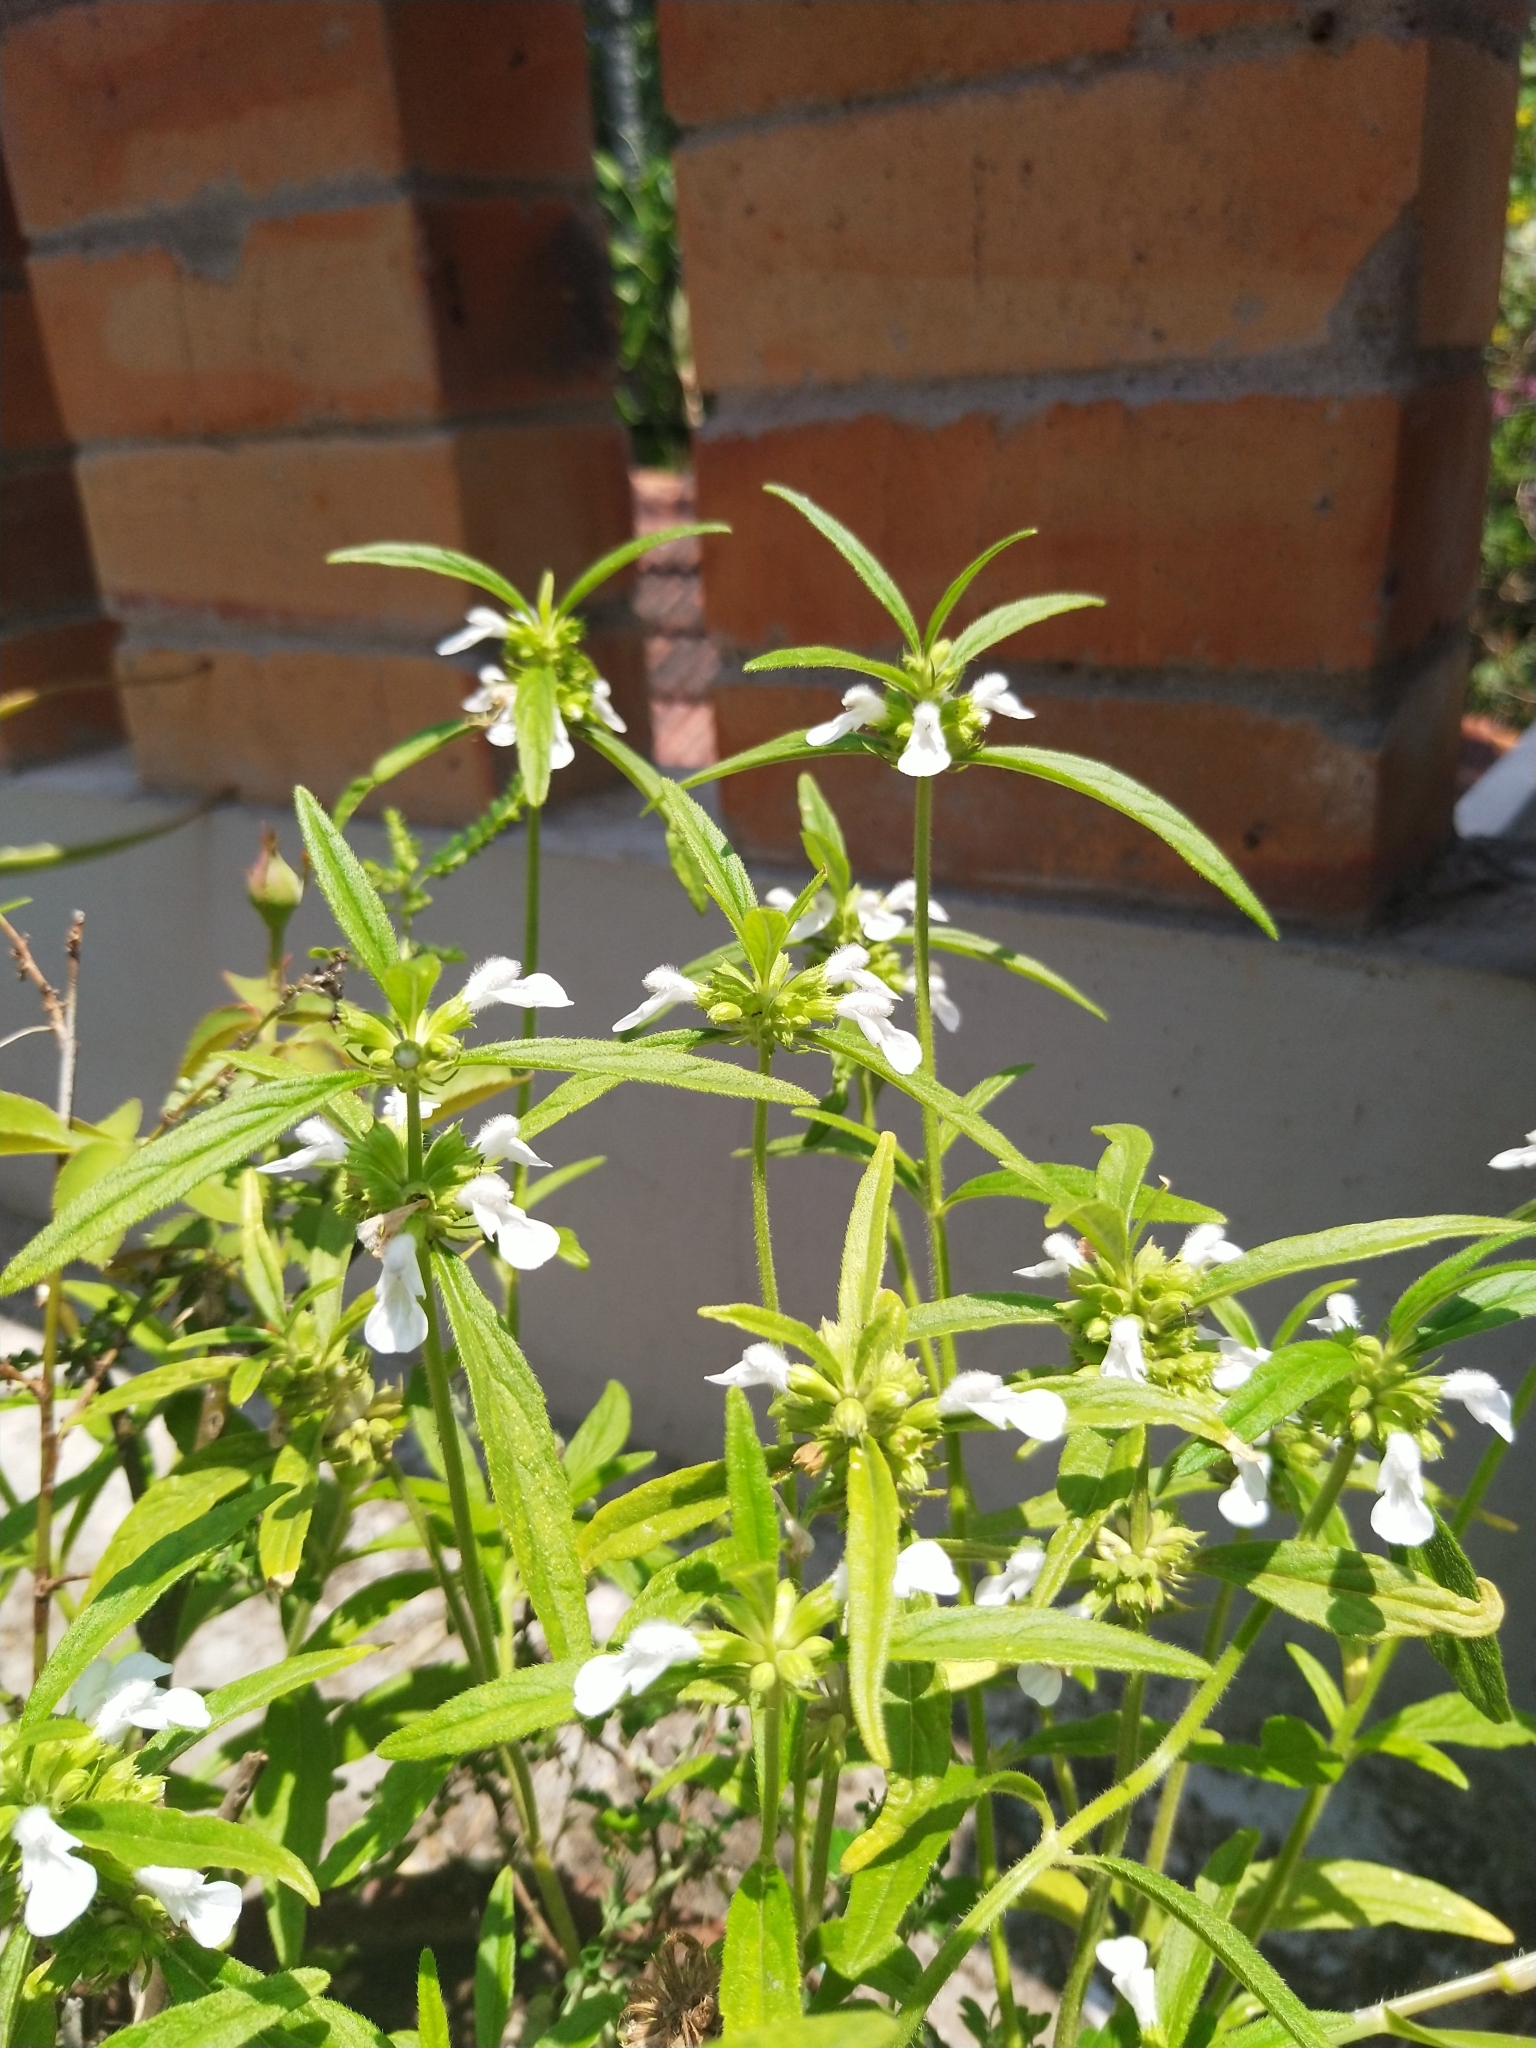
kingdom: Plantae
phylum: Tracheophyta
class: Magnoliopsida
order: Lamiales
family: Lamiaceae
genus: Leucas
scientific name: Leucas aspera
